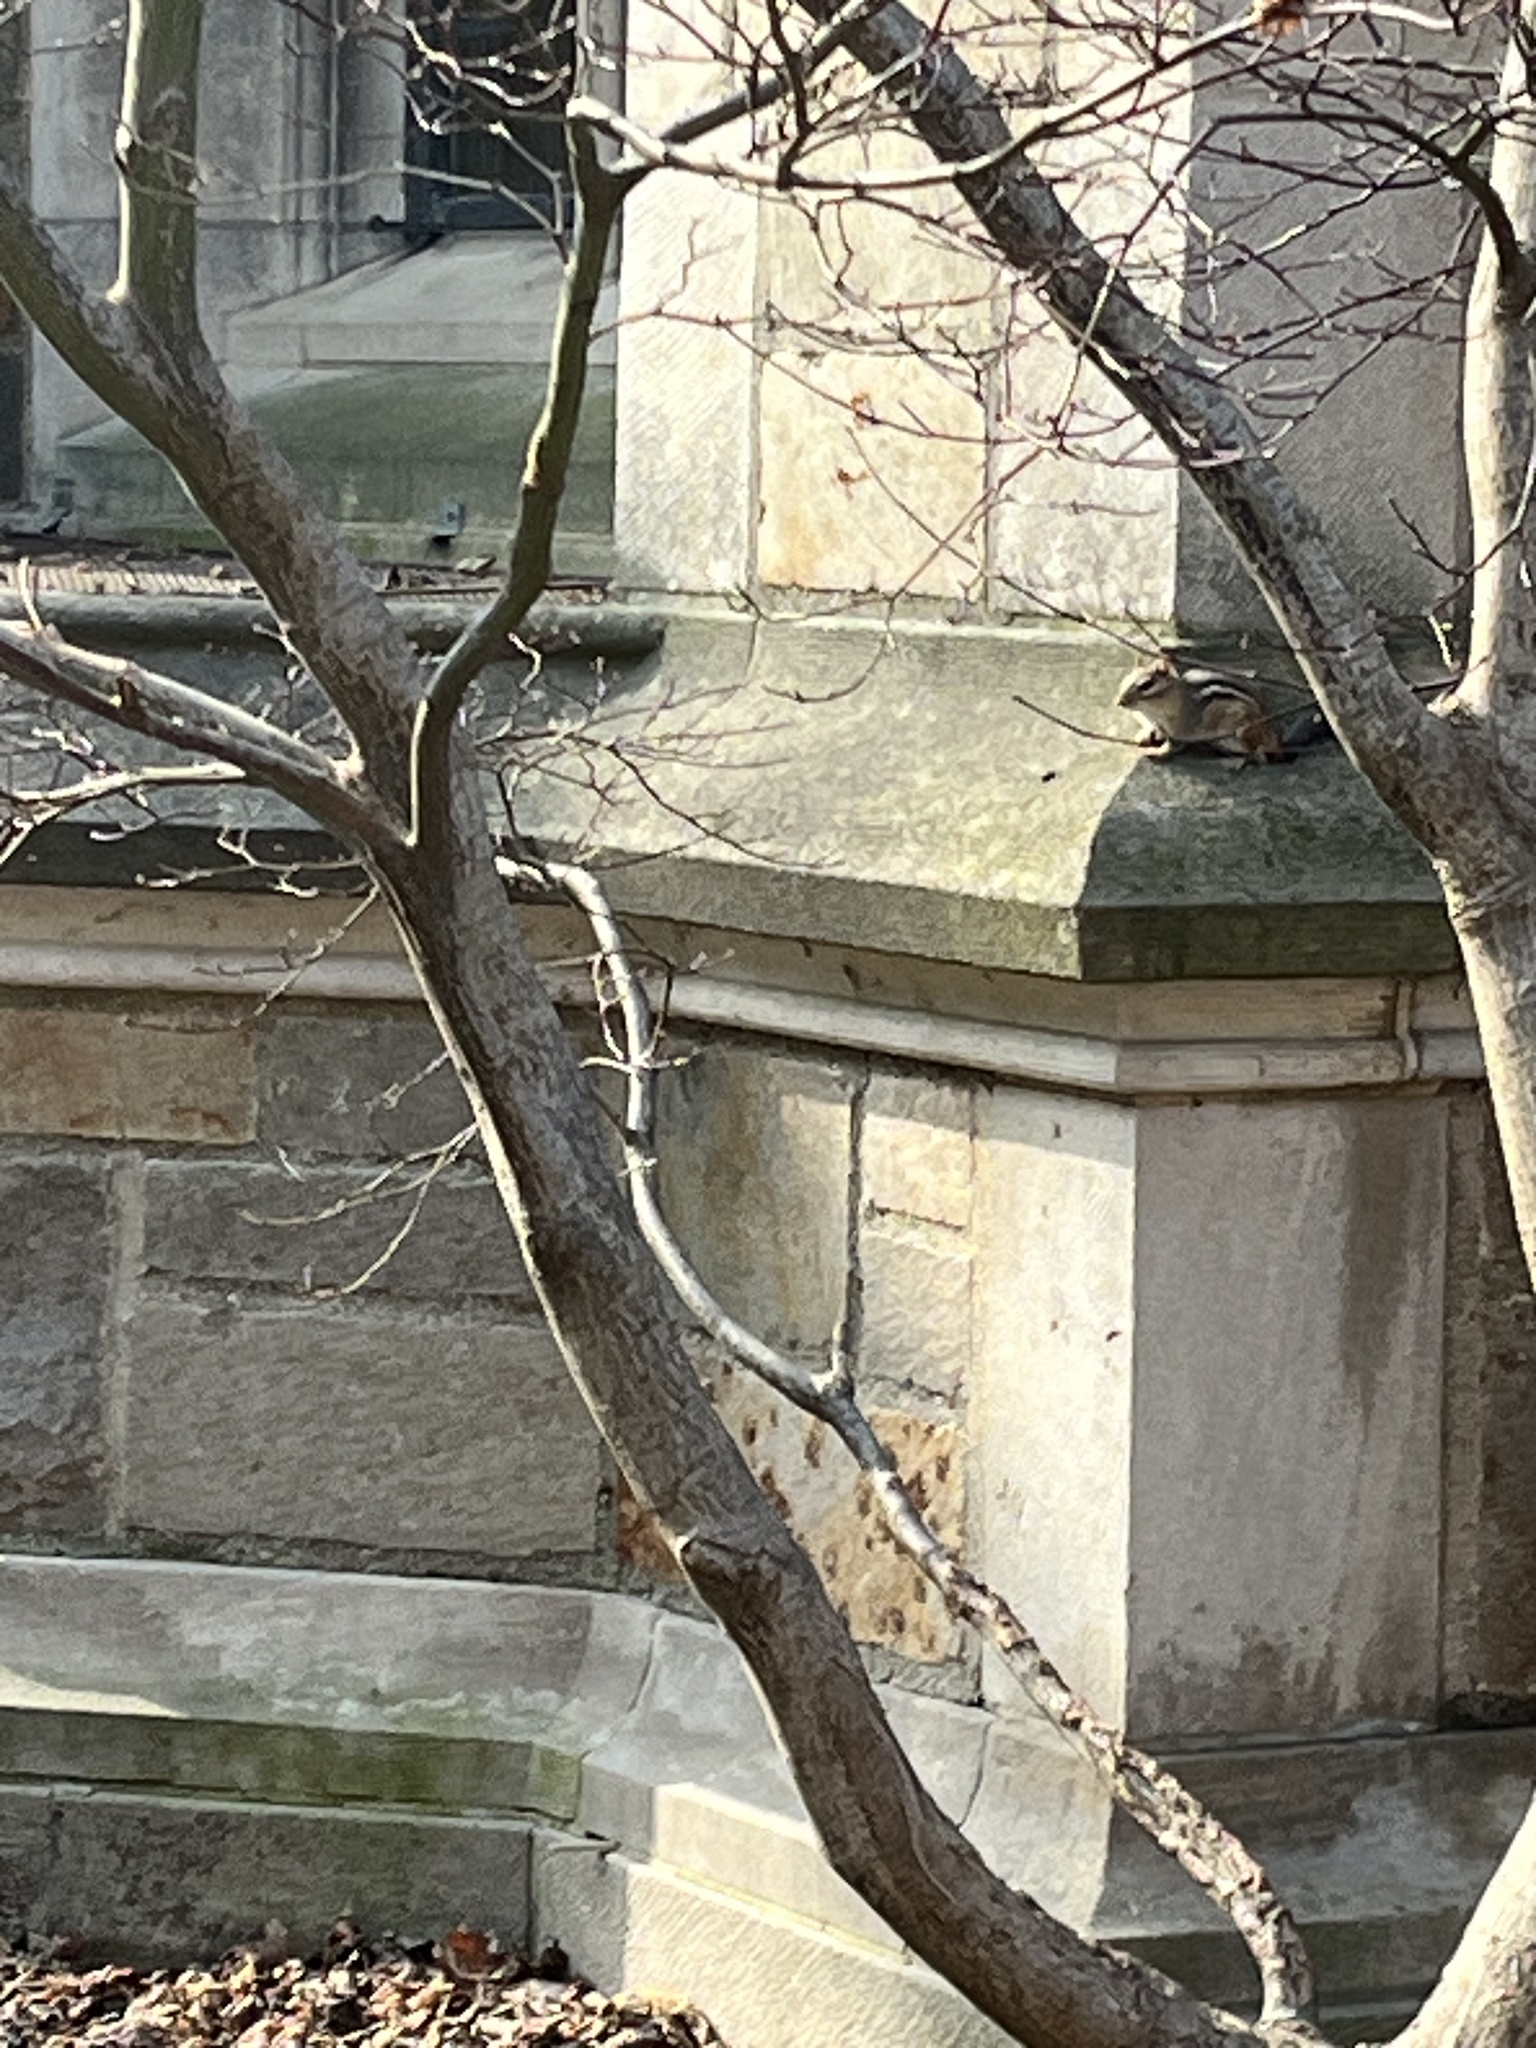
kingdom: Animalia
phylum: Chordata
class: Mammalia
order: Rodentia
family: Sciuridae
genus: Tamias
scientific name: Tamias striatus
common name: Eastern chipmunk
